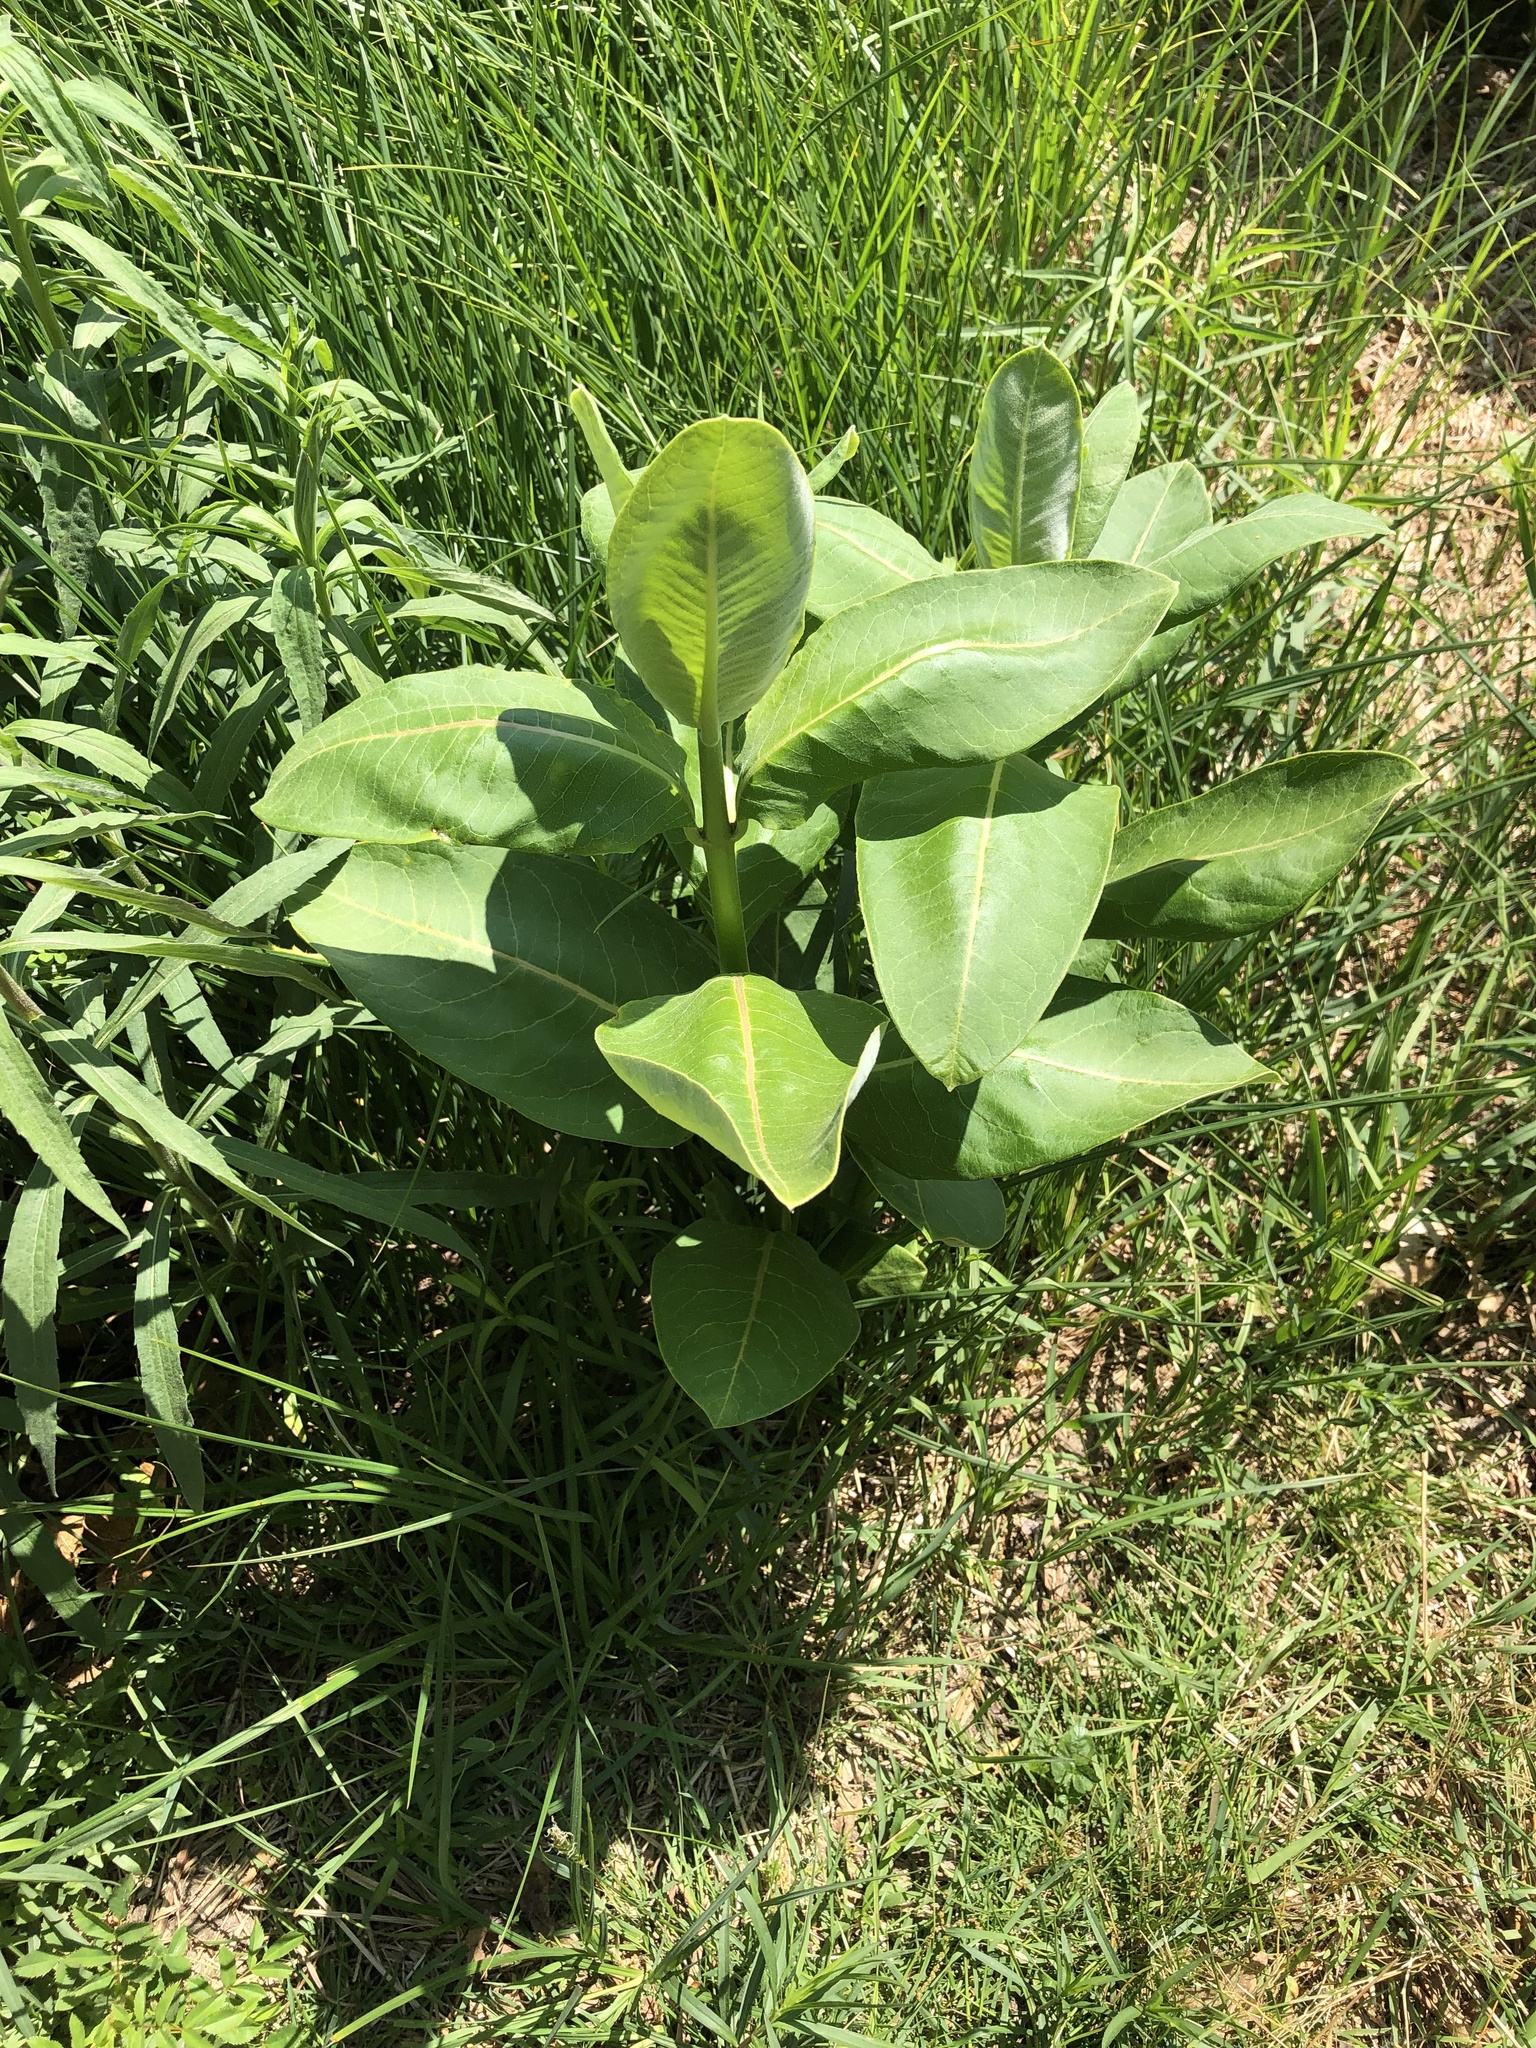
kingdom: Plantae
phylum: Tracheophyta
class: Magnoliopsida
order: Gentianales
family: Apocynaceae
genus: Asclepias
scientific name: Asclepias syriaca
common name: Common milkweed
